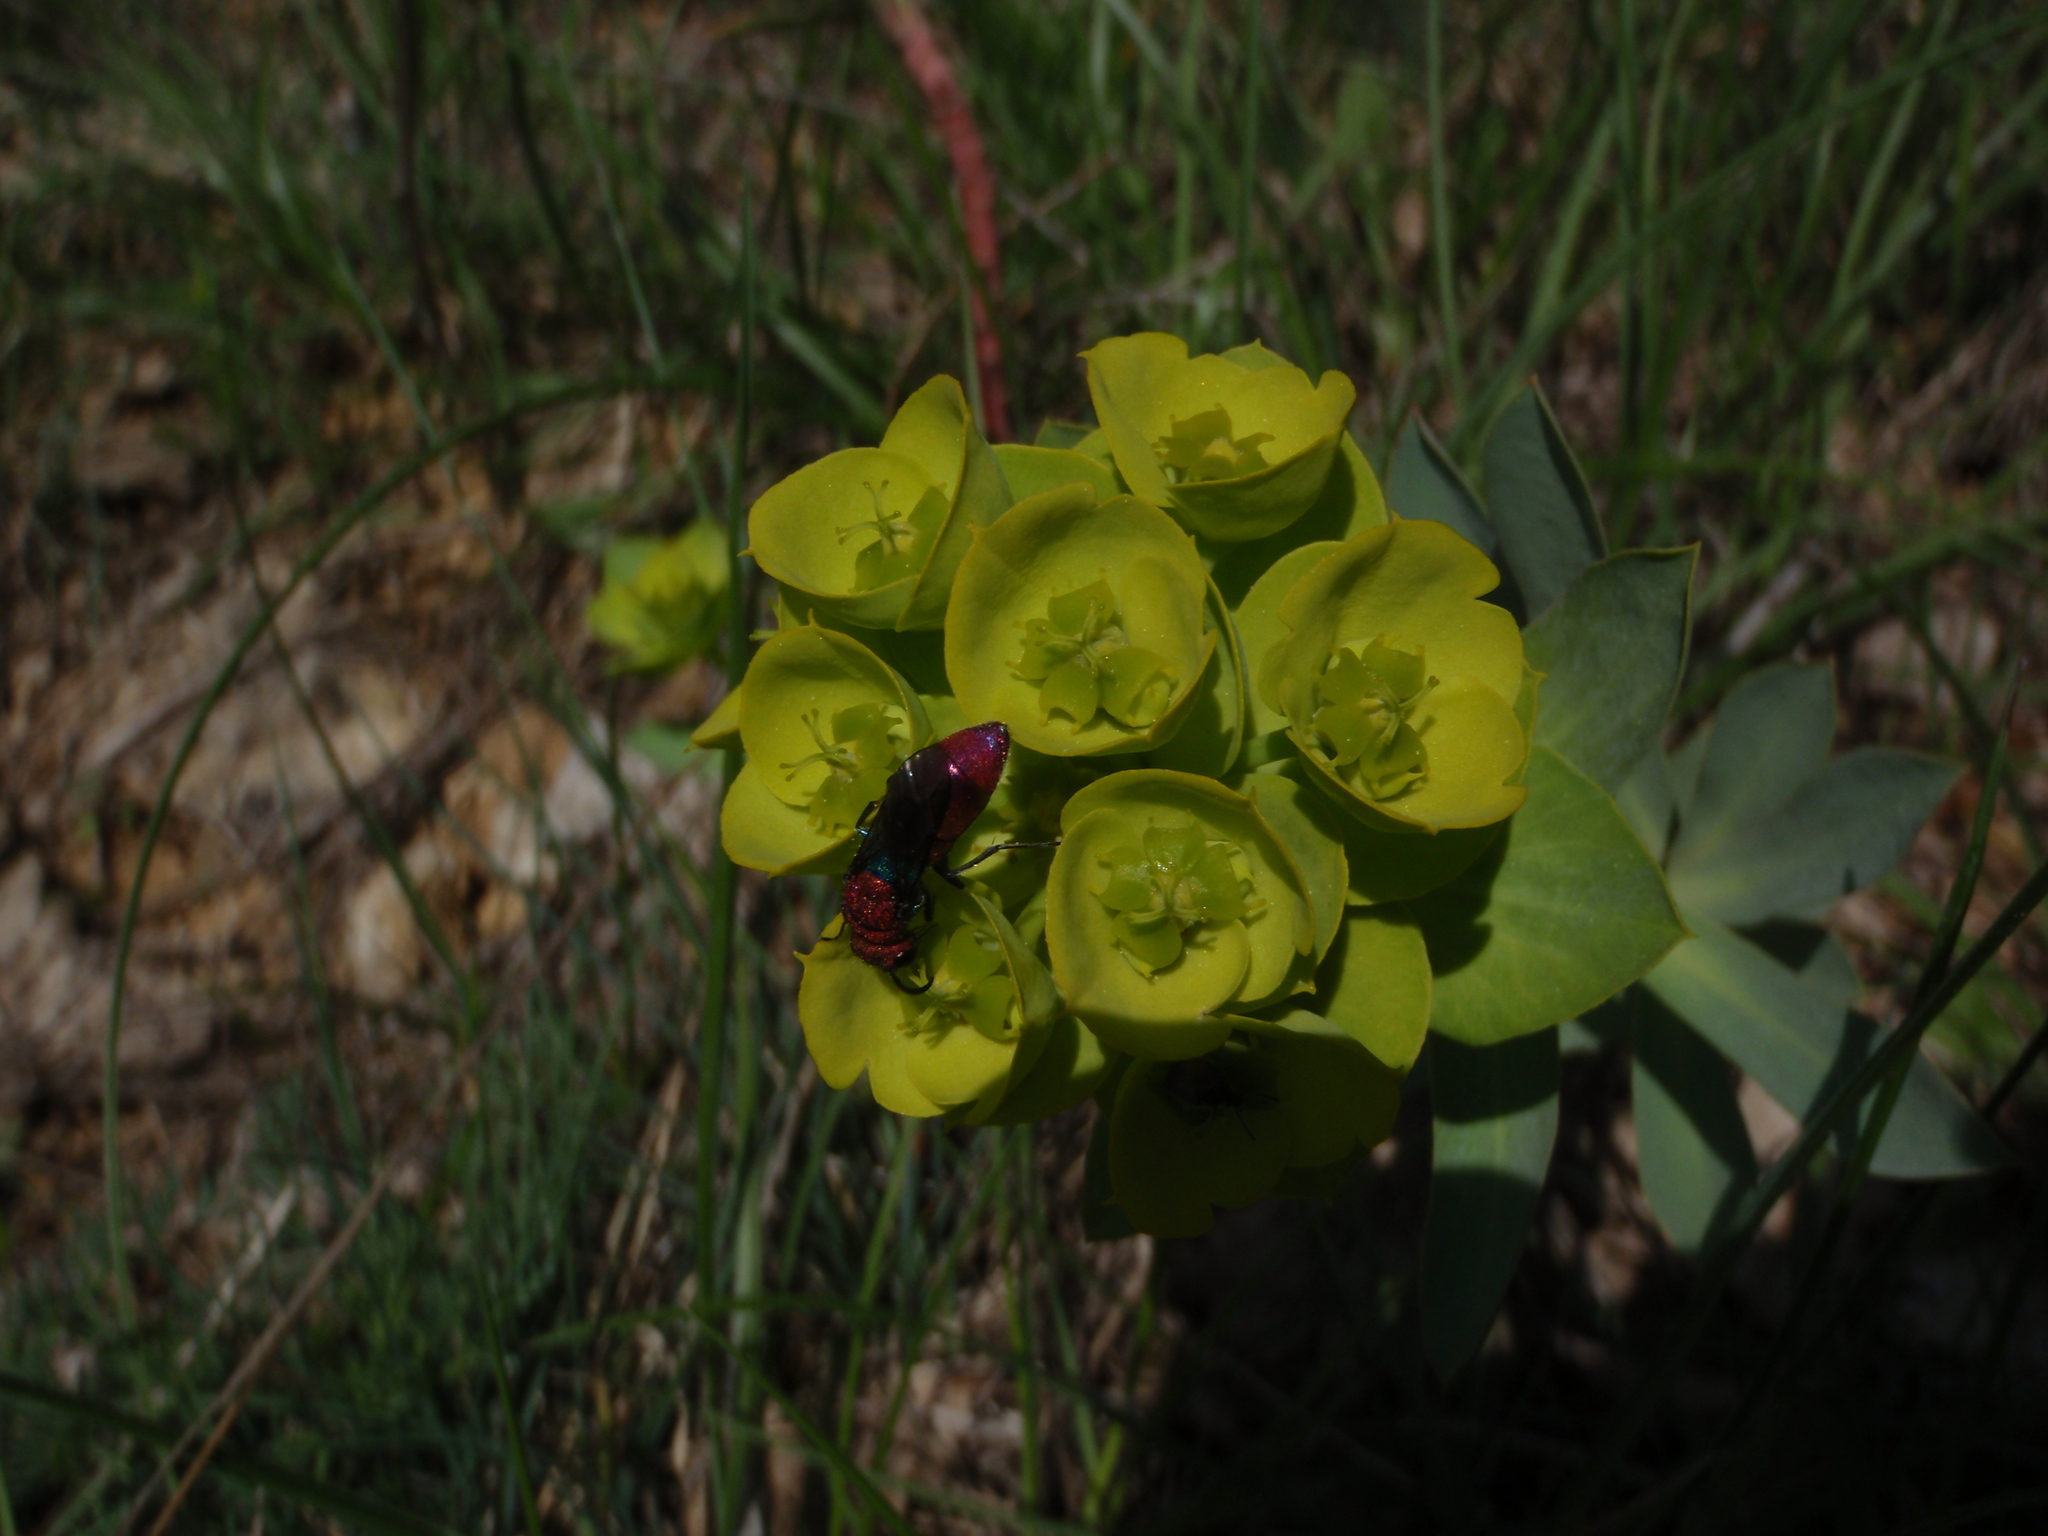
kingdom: Animalia
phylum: Arthropoda
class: Insecta
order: Hymenoptera
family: Chrysididae
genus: Chrysura
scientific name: Chrysura cuprea
